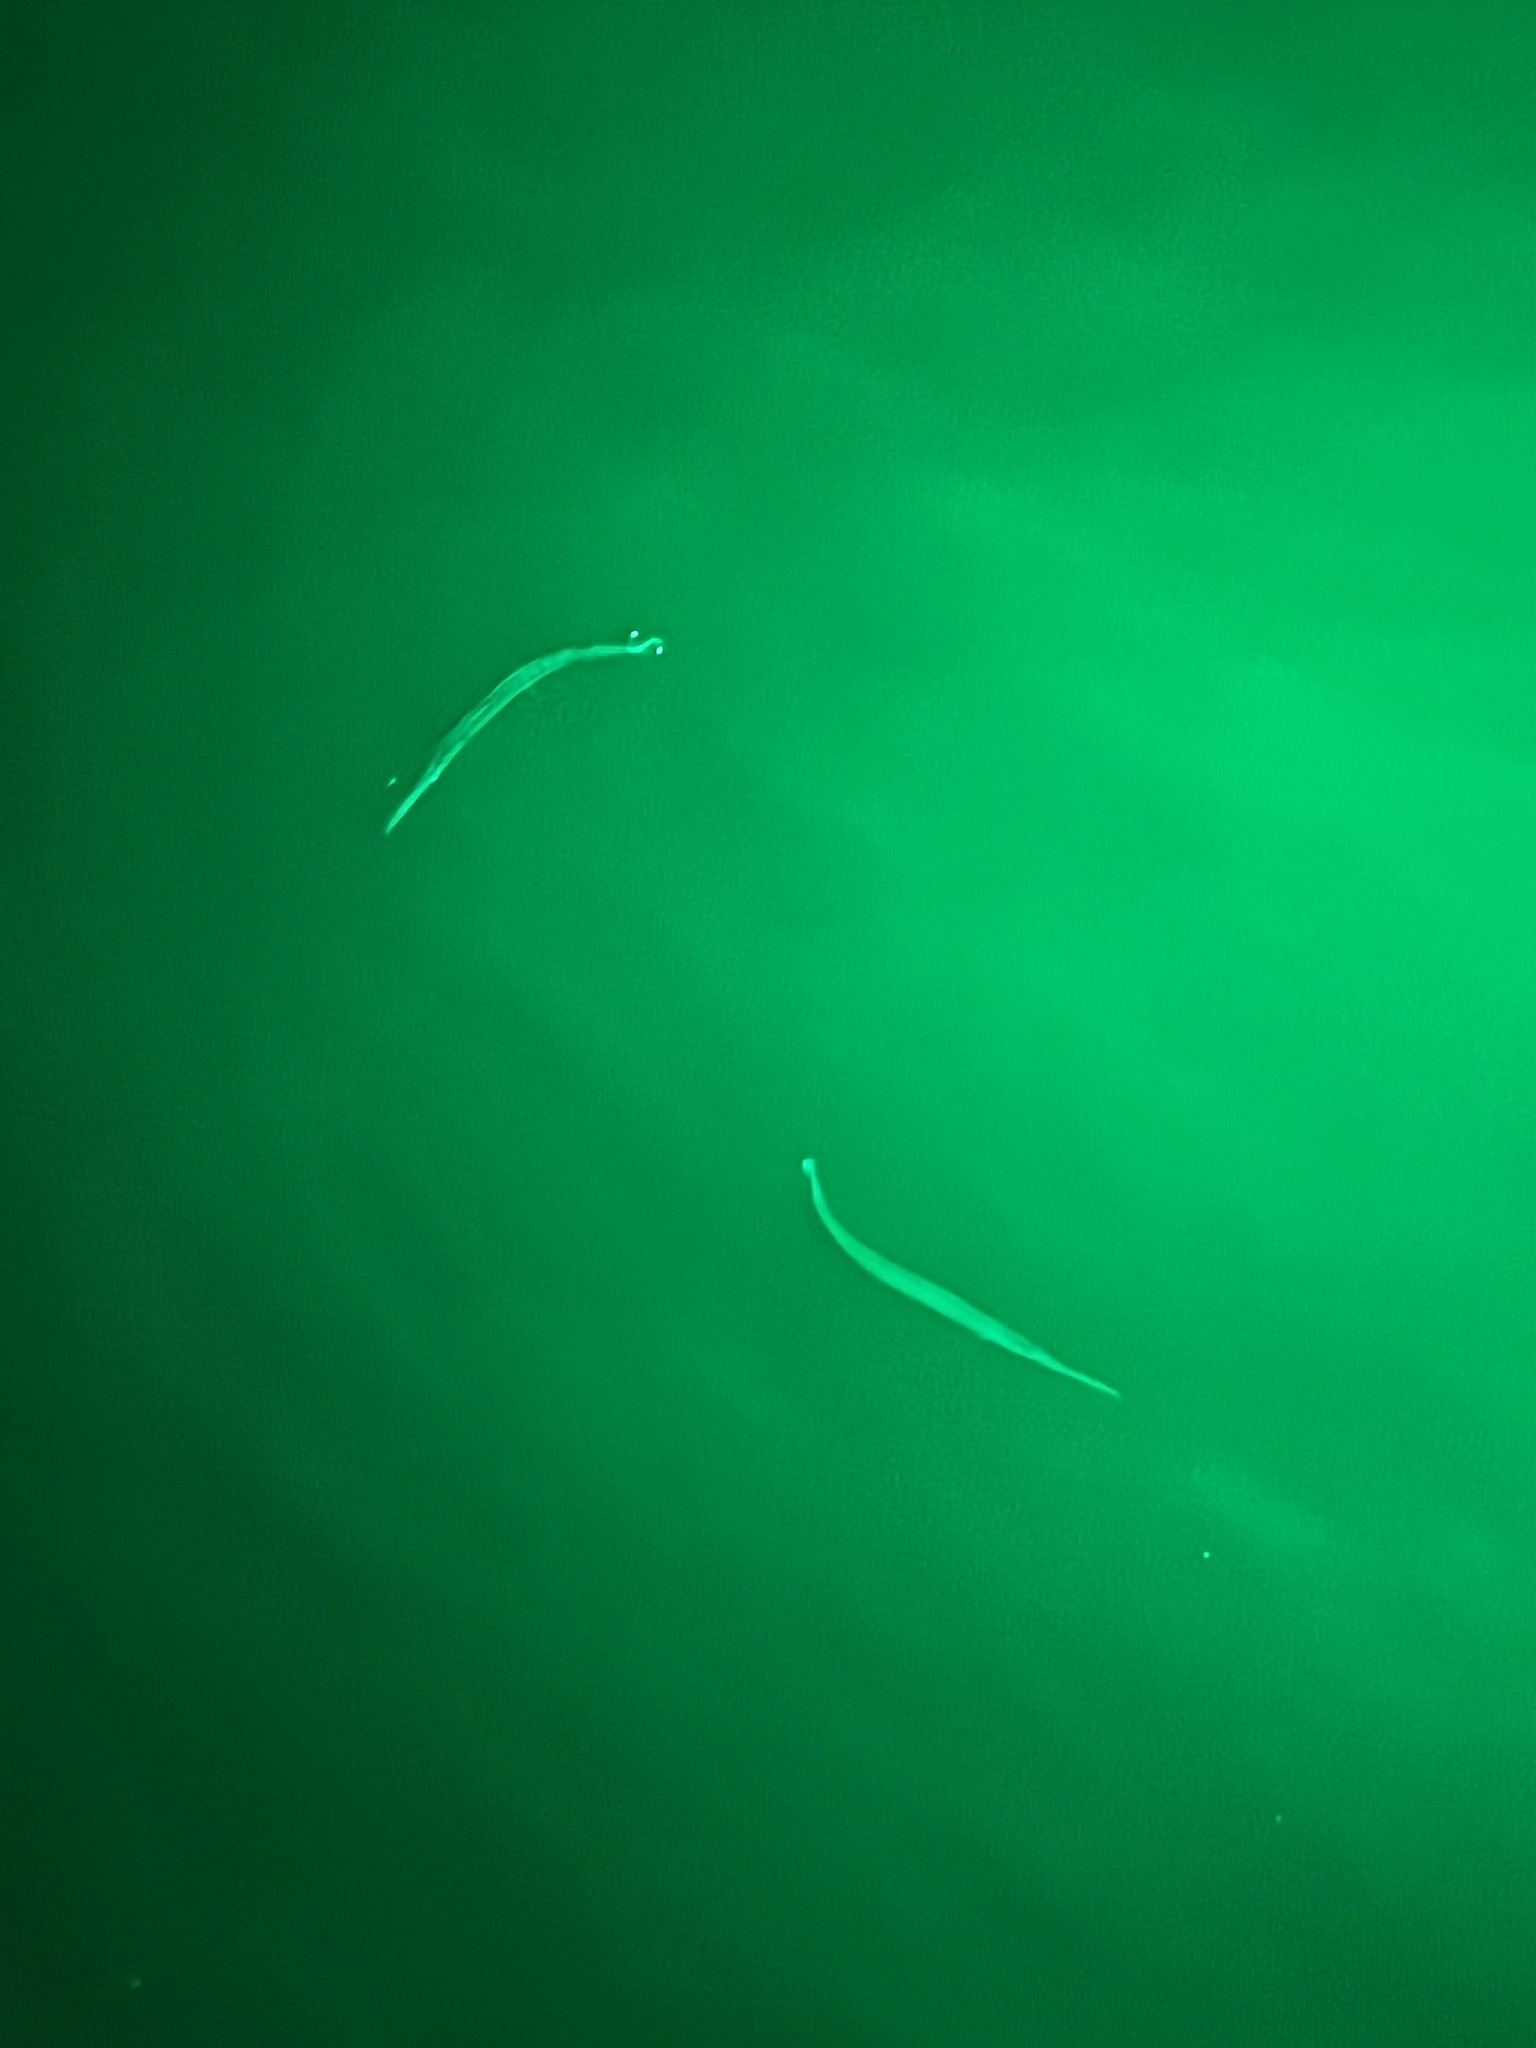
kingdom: Animalia
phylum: Chordata
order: Beloniformes
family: Belonidae
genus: Strongylura
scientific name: Strongylura marina
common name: Atlantic needlefish
